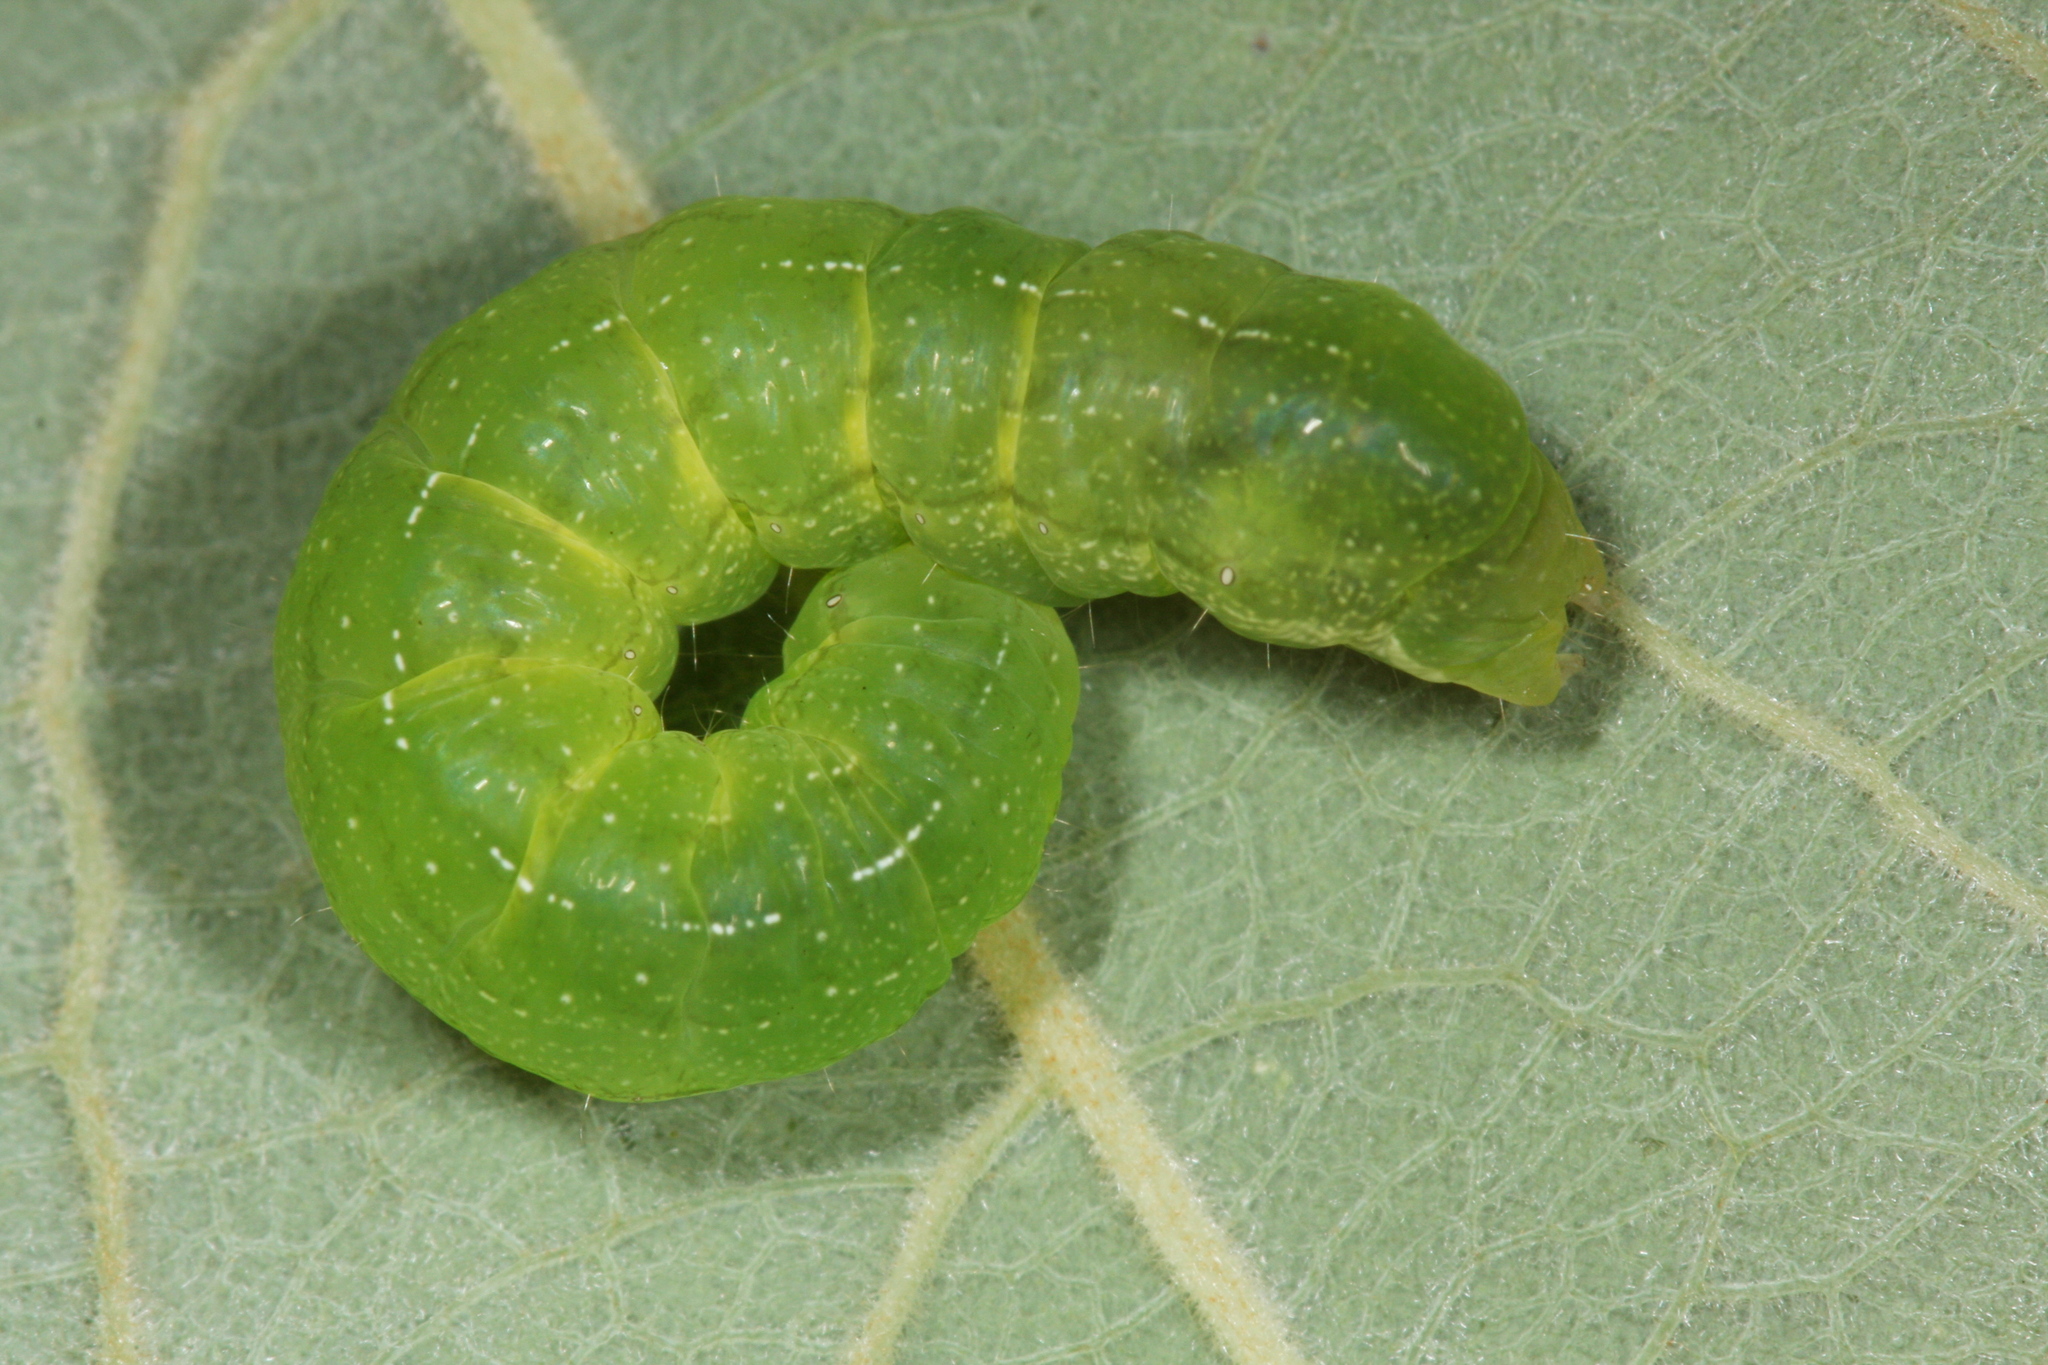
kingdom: Animalia
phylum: Arthropoda
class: Insecta
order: Lepidoptera
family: Noctuidae
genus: Phlogophora
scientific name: Phlogophora meticulosa
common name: Angle shades
